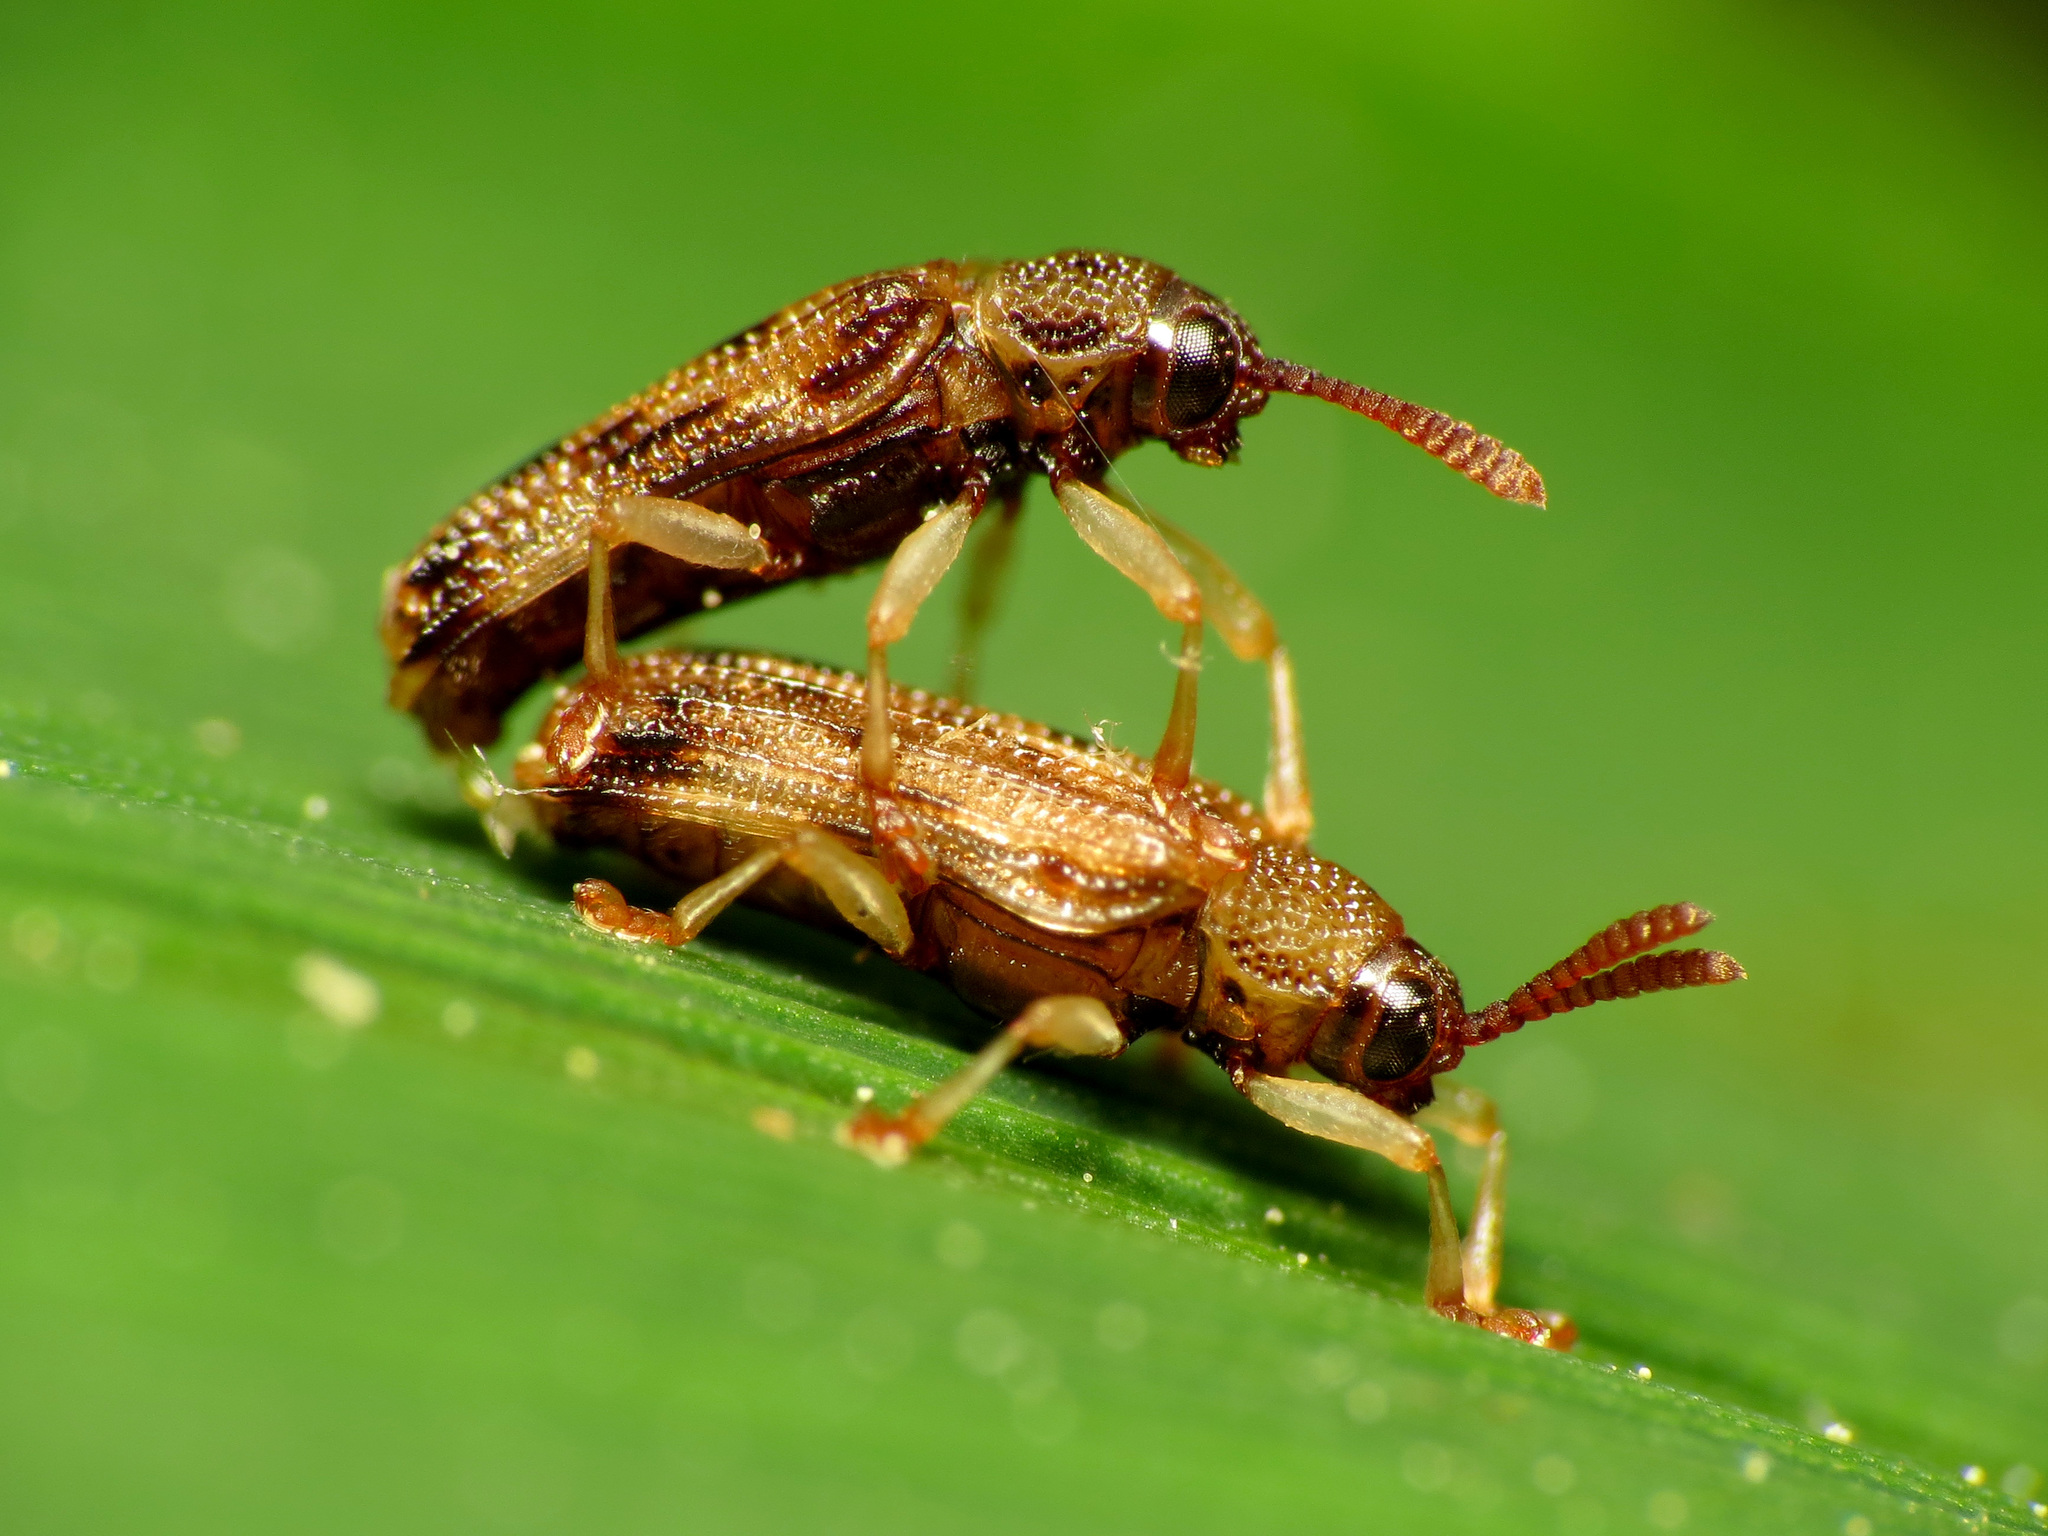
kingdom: Animalia
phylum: Arthropoda
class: Insecta
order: Coleoptera
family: Chrysomelidae
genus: Sumitrosis
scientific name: Sumitrosis rosea
